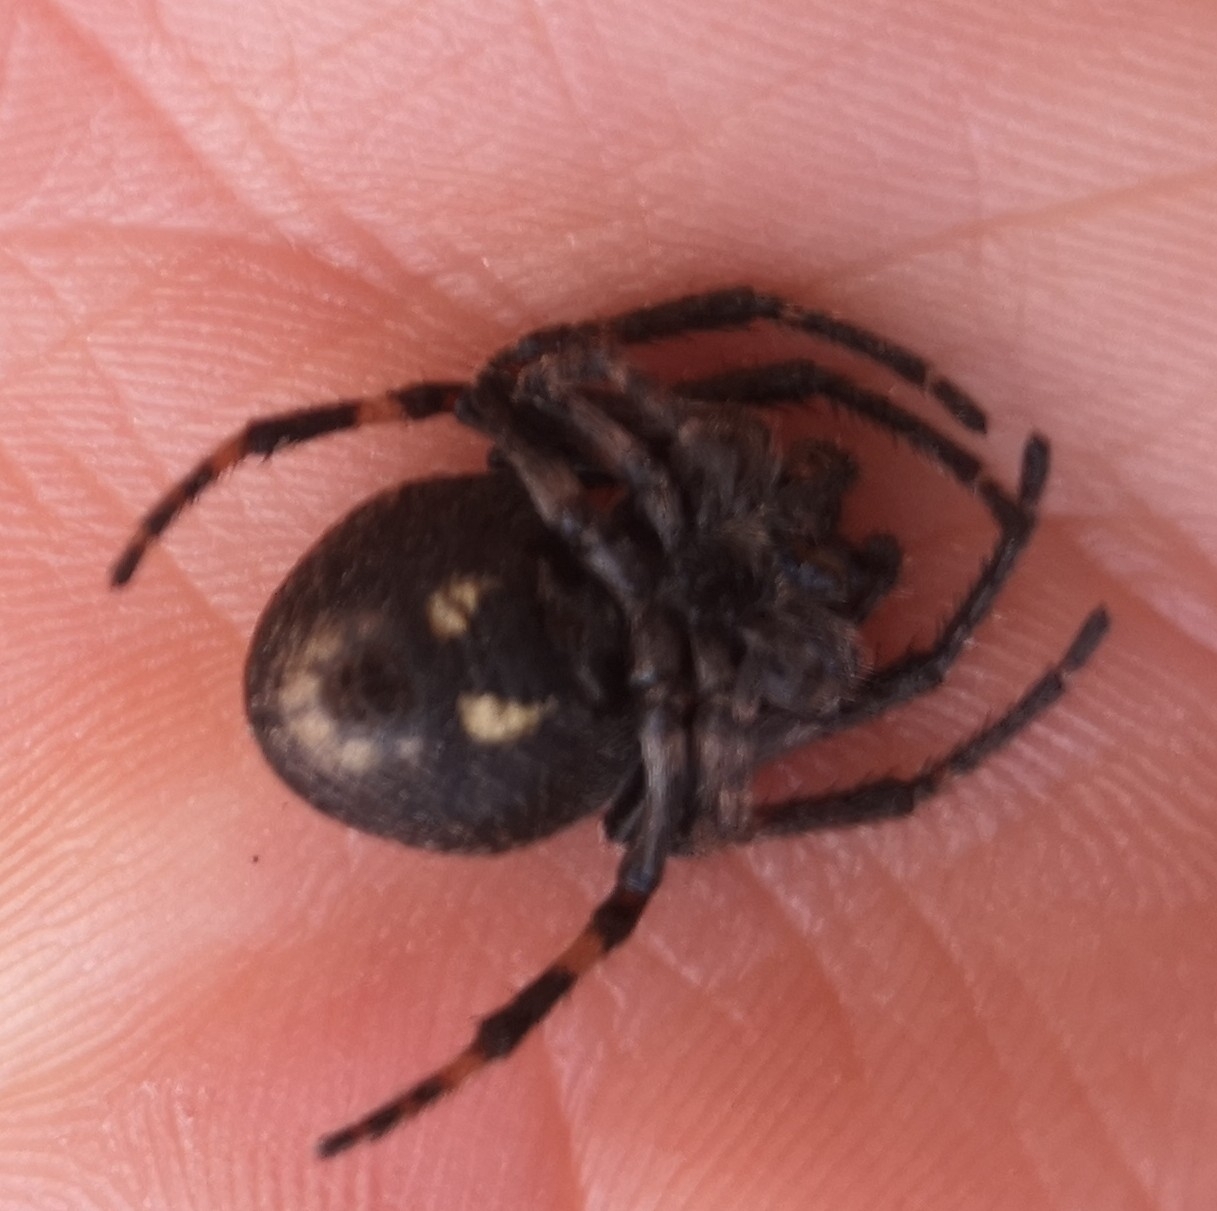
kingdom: Animalia
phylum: Arthropoda
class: Arachnida
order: Araneae
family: Araneidae
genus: Nuctenea
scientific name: Nuctenea umbratica
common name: Toad spider
